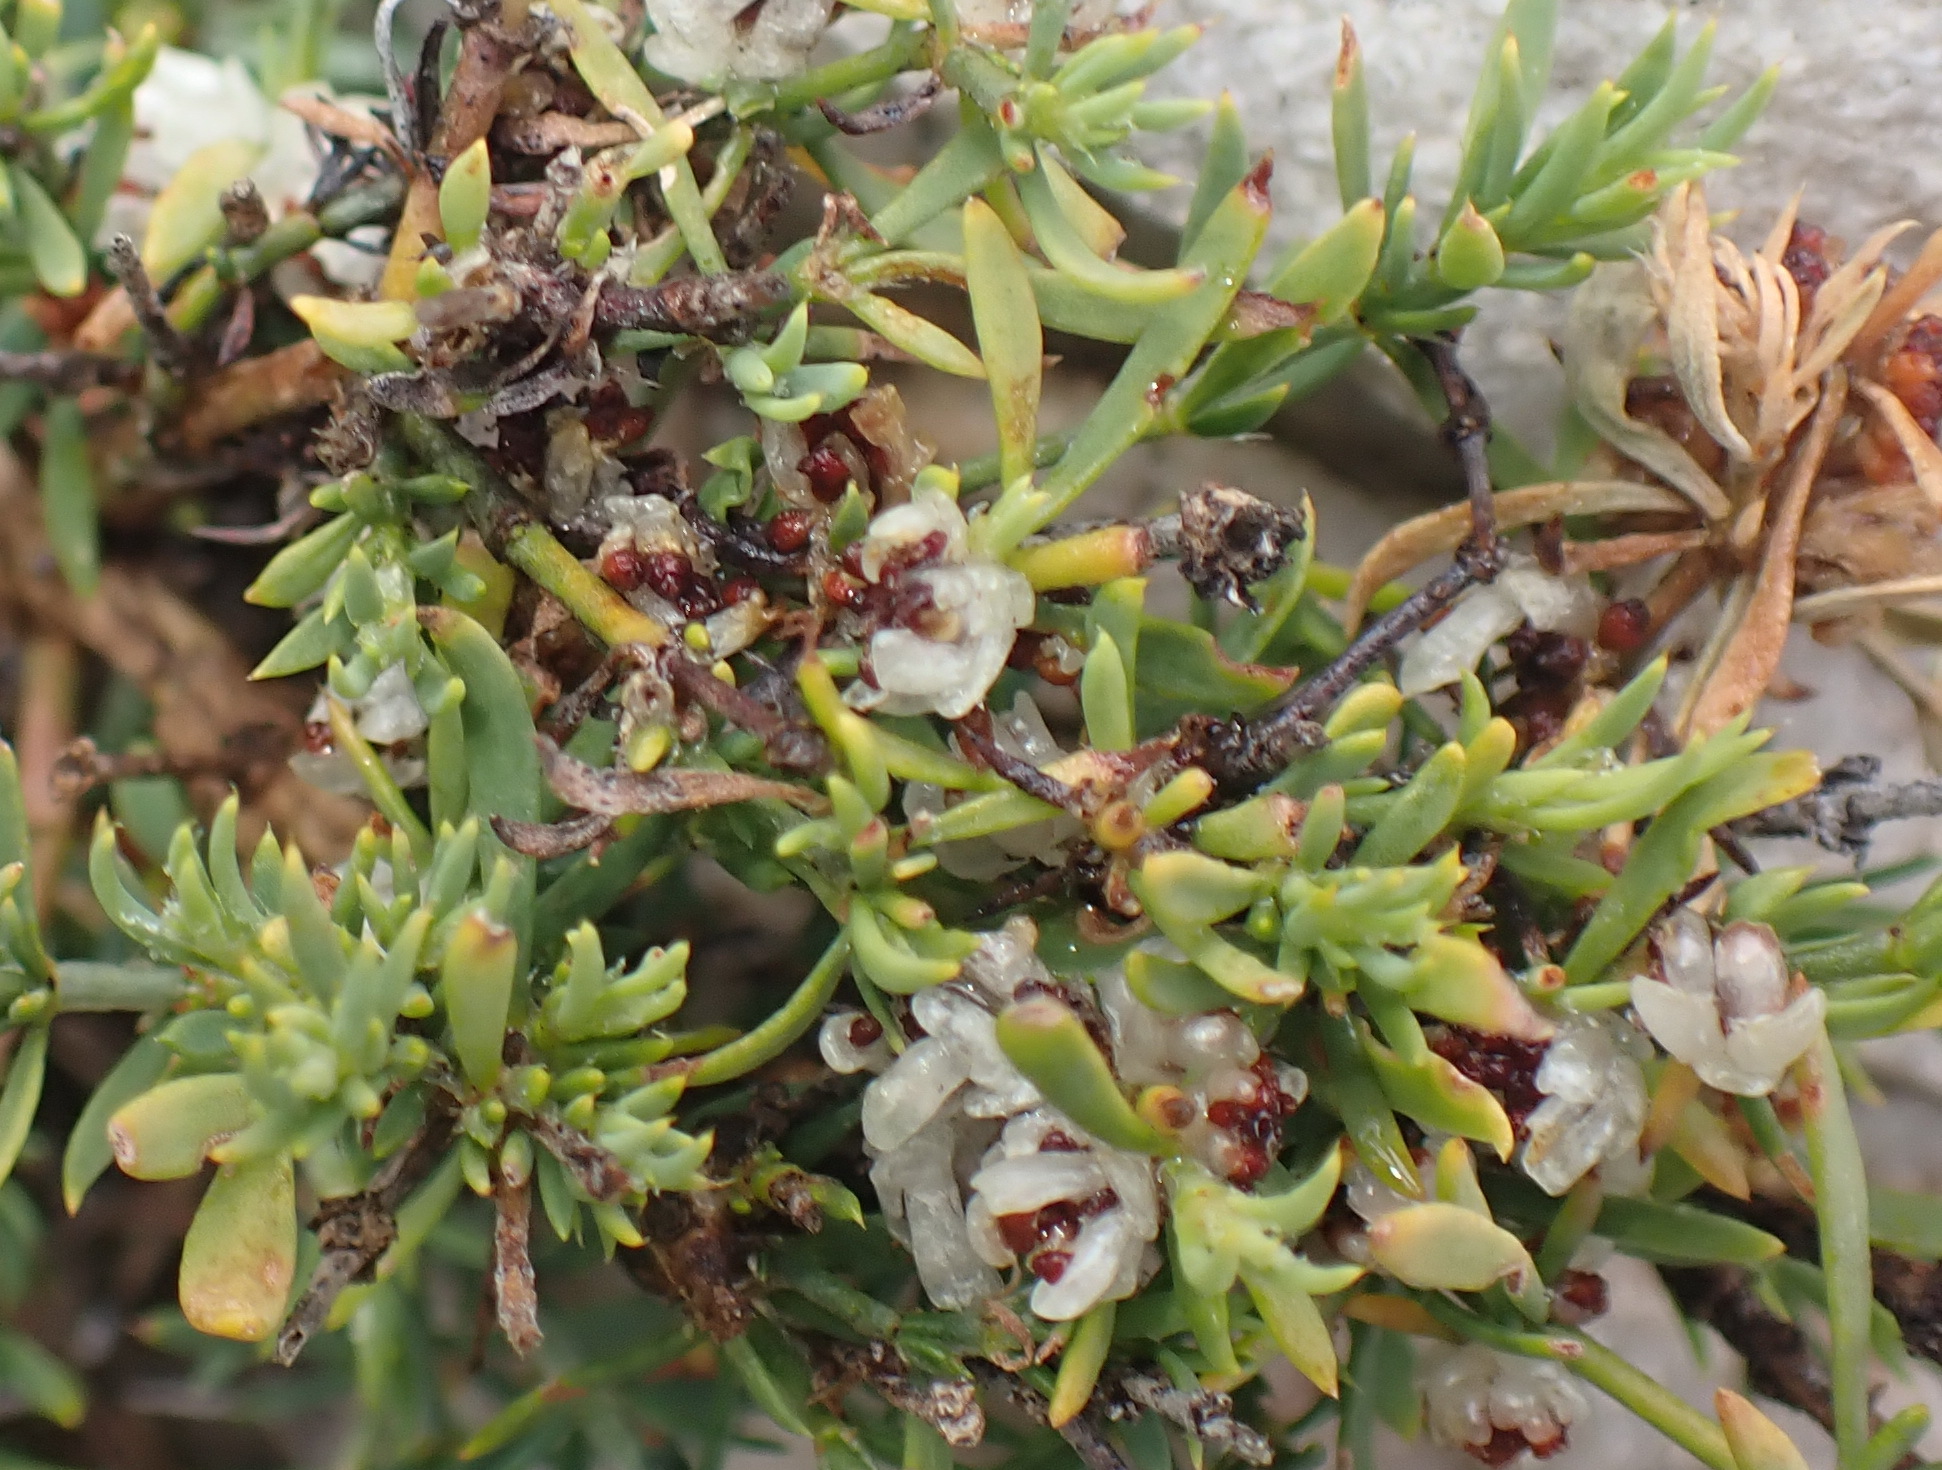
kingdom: Plantae
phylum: Tracheophyta
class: Magnoliopsida
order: Caryophyllales
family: Caryophyllaceae
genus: Pollichia
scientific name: Pollichia campestris
